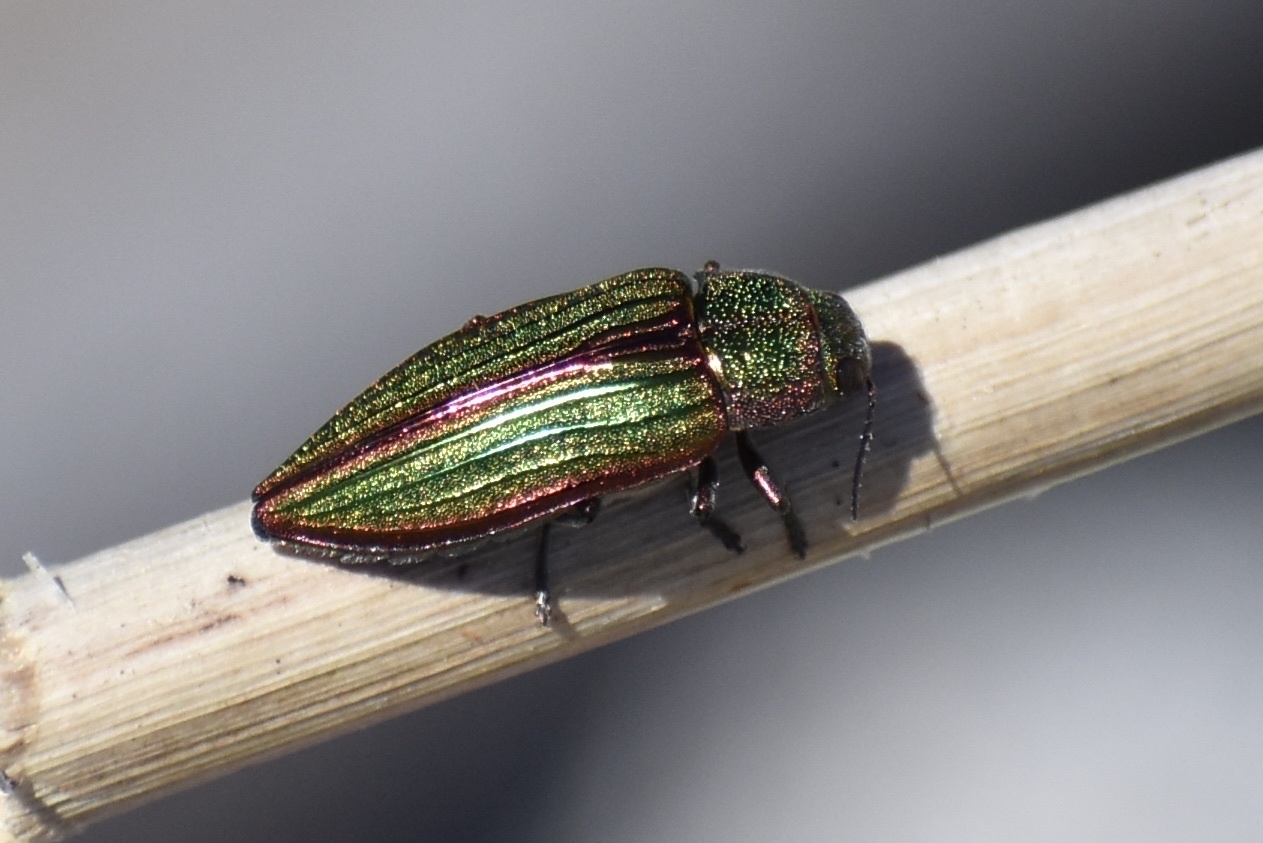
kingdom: Animalia
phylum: Arthropoda
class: Insecta
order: Coleoptera
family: Buprestidae
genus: Buprestis
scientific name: Buprestis aurulenta
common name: Golden buprestid
